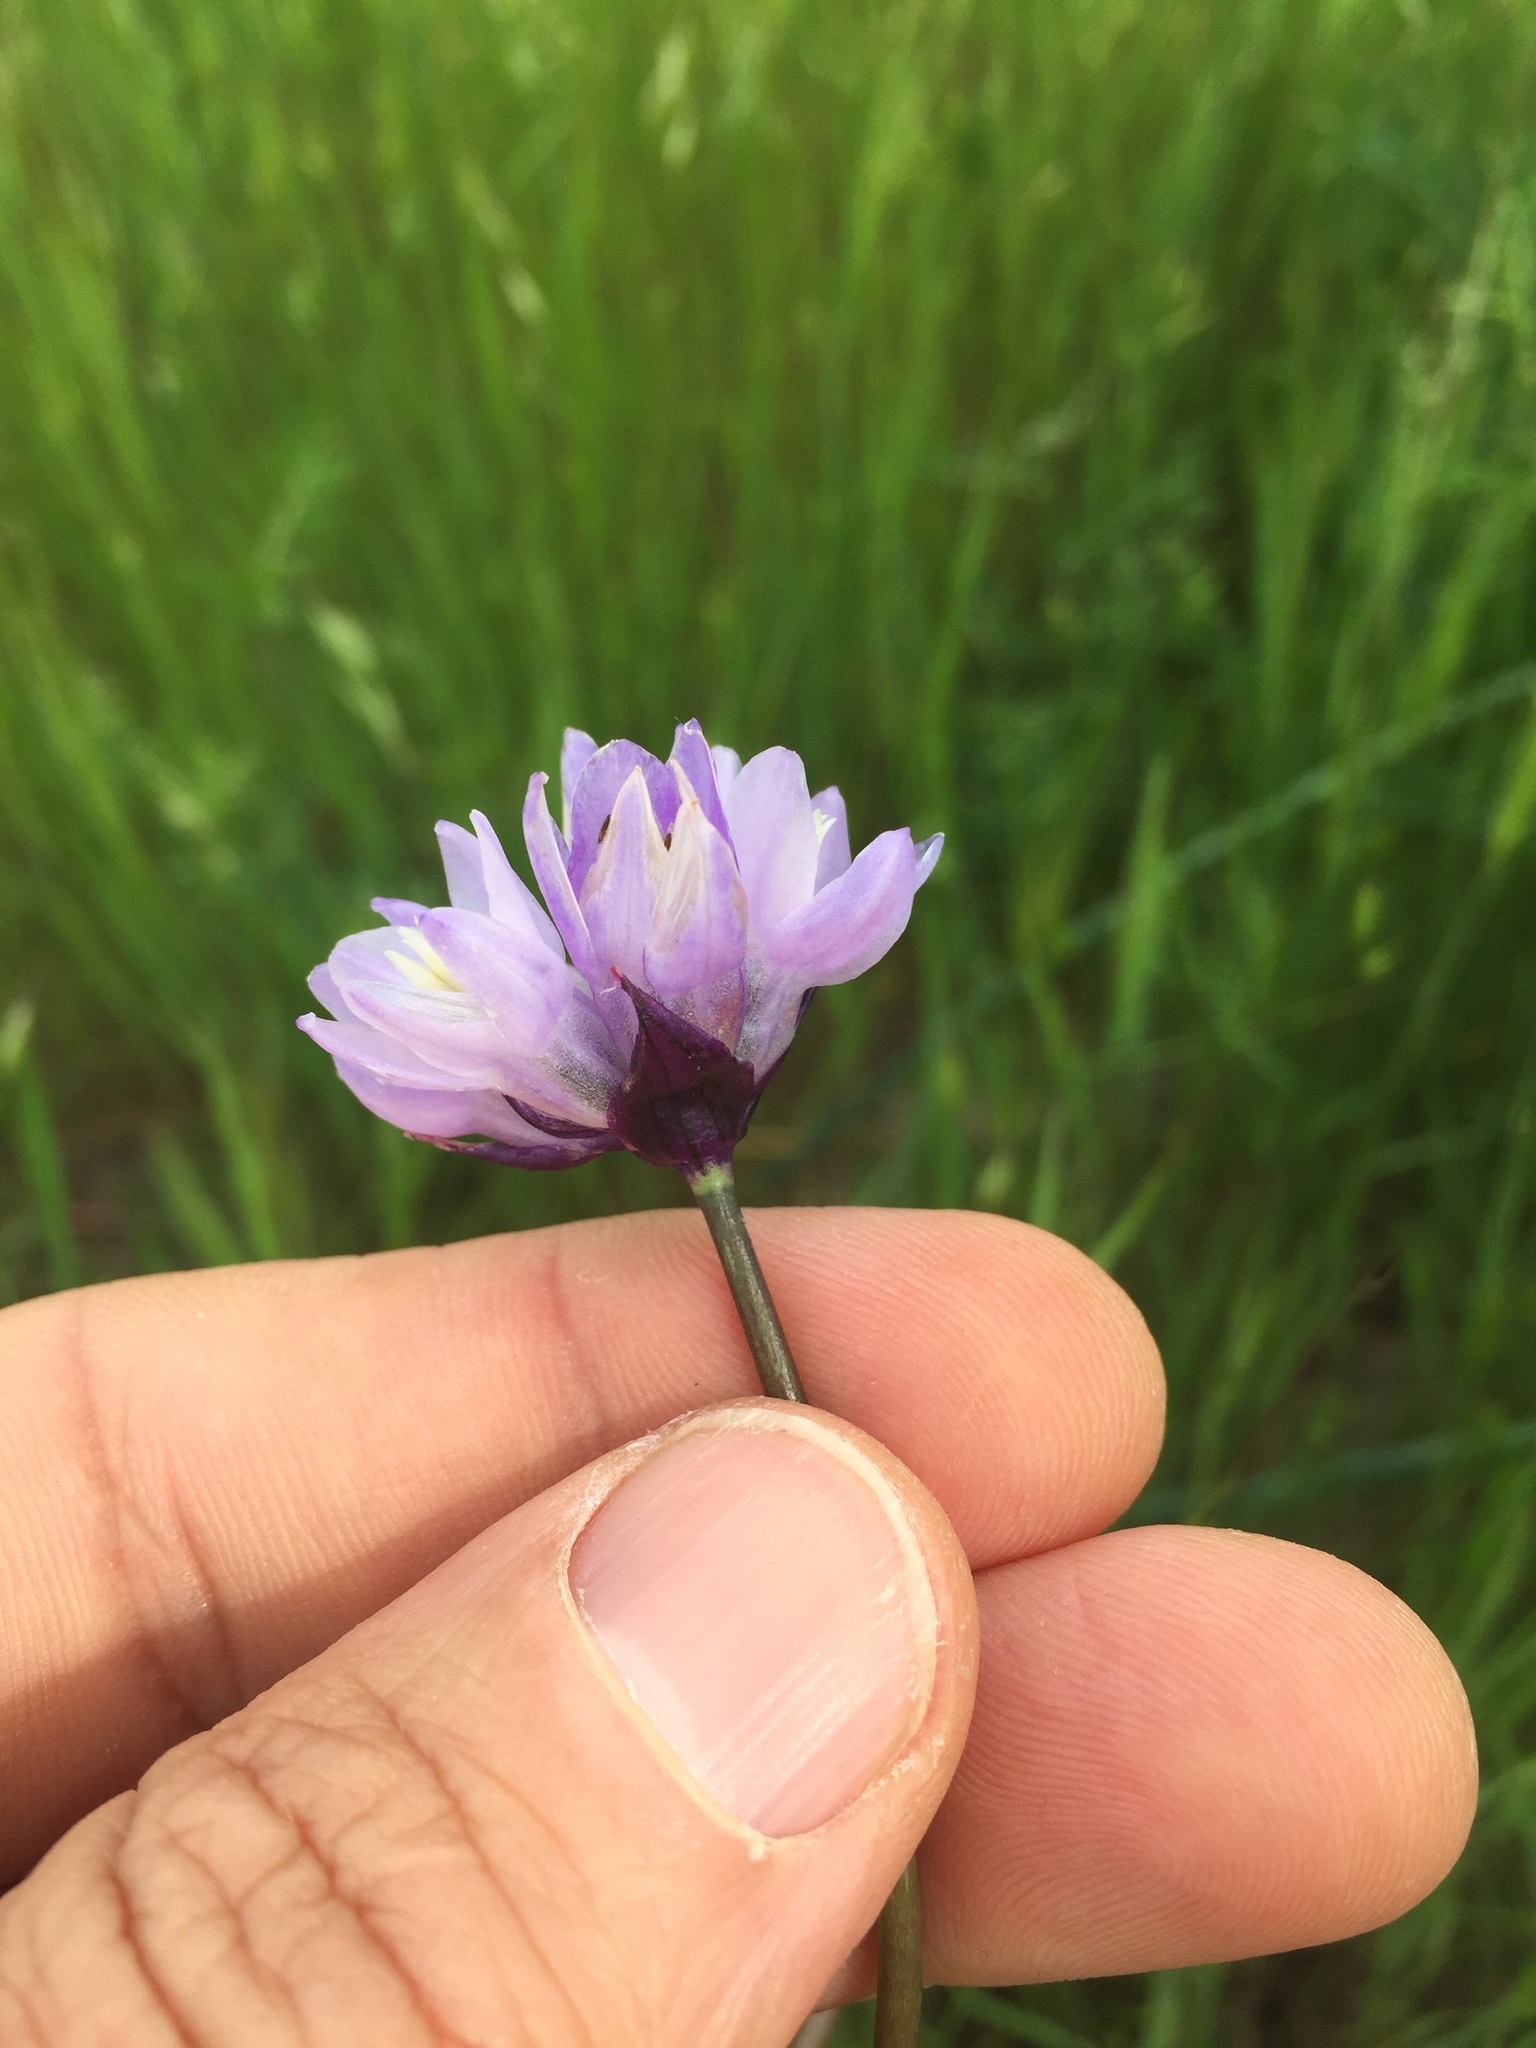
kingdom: Plantae
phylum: Tracheophyta
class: Liliopsida
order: Asparagales
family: Asparagaceae
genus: Dipterostemon
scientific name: Dipterostemon capitatus
